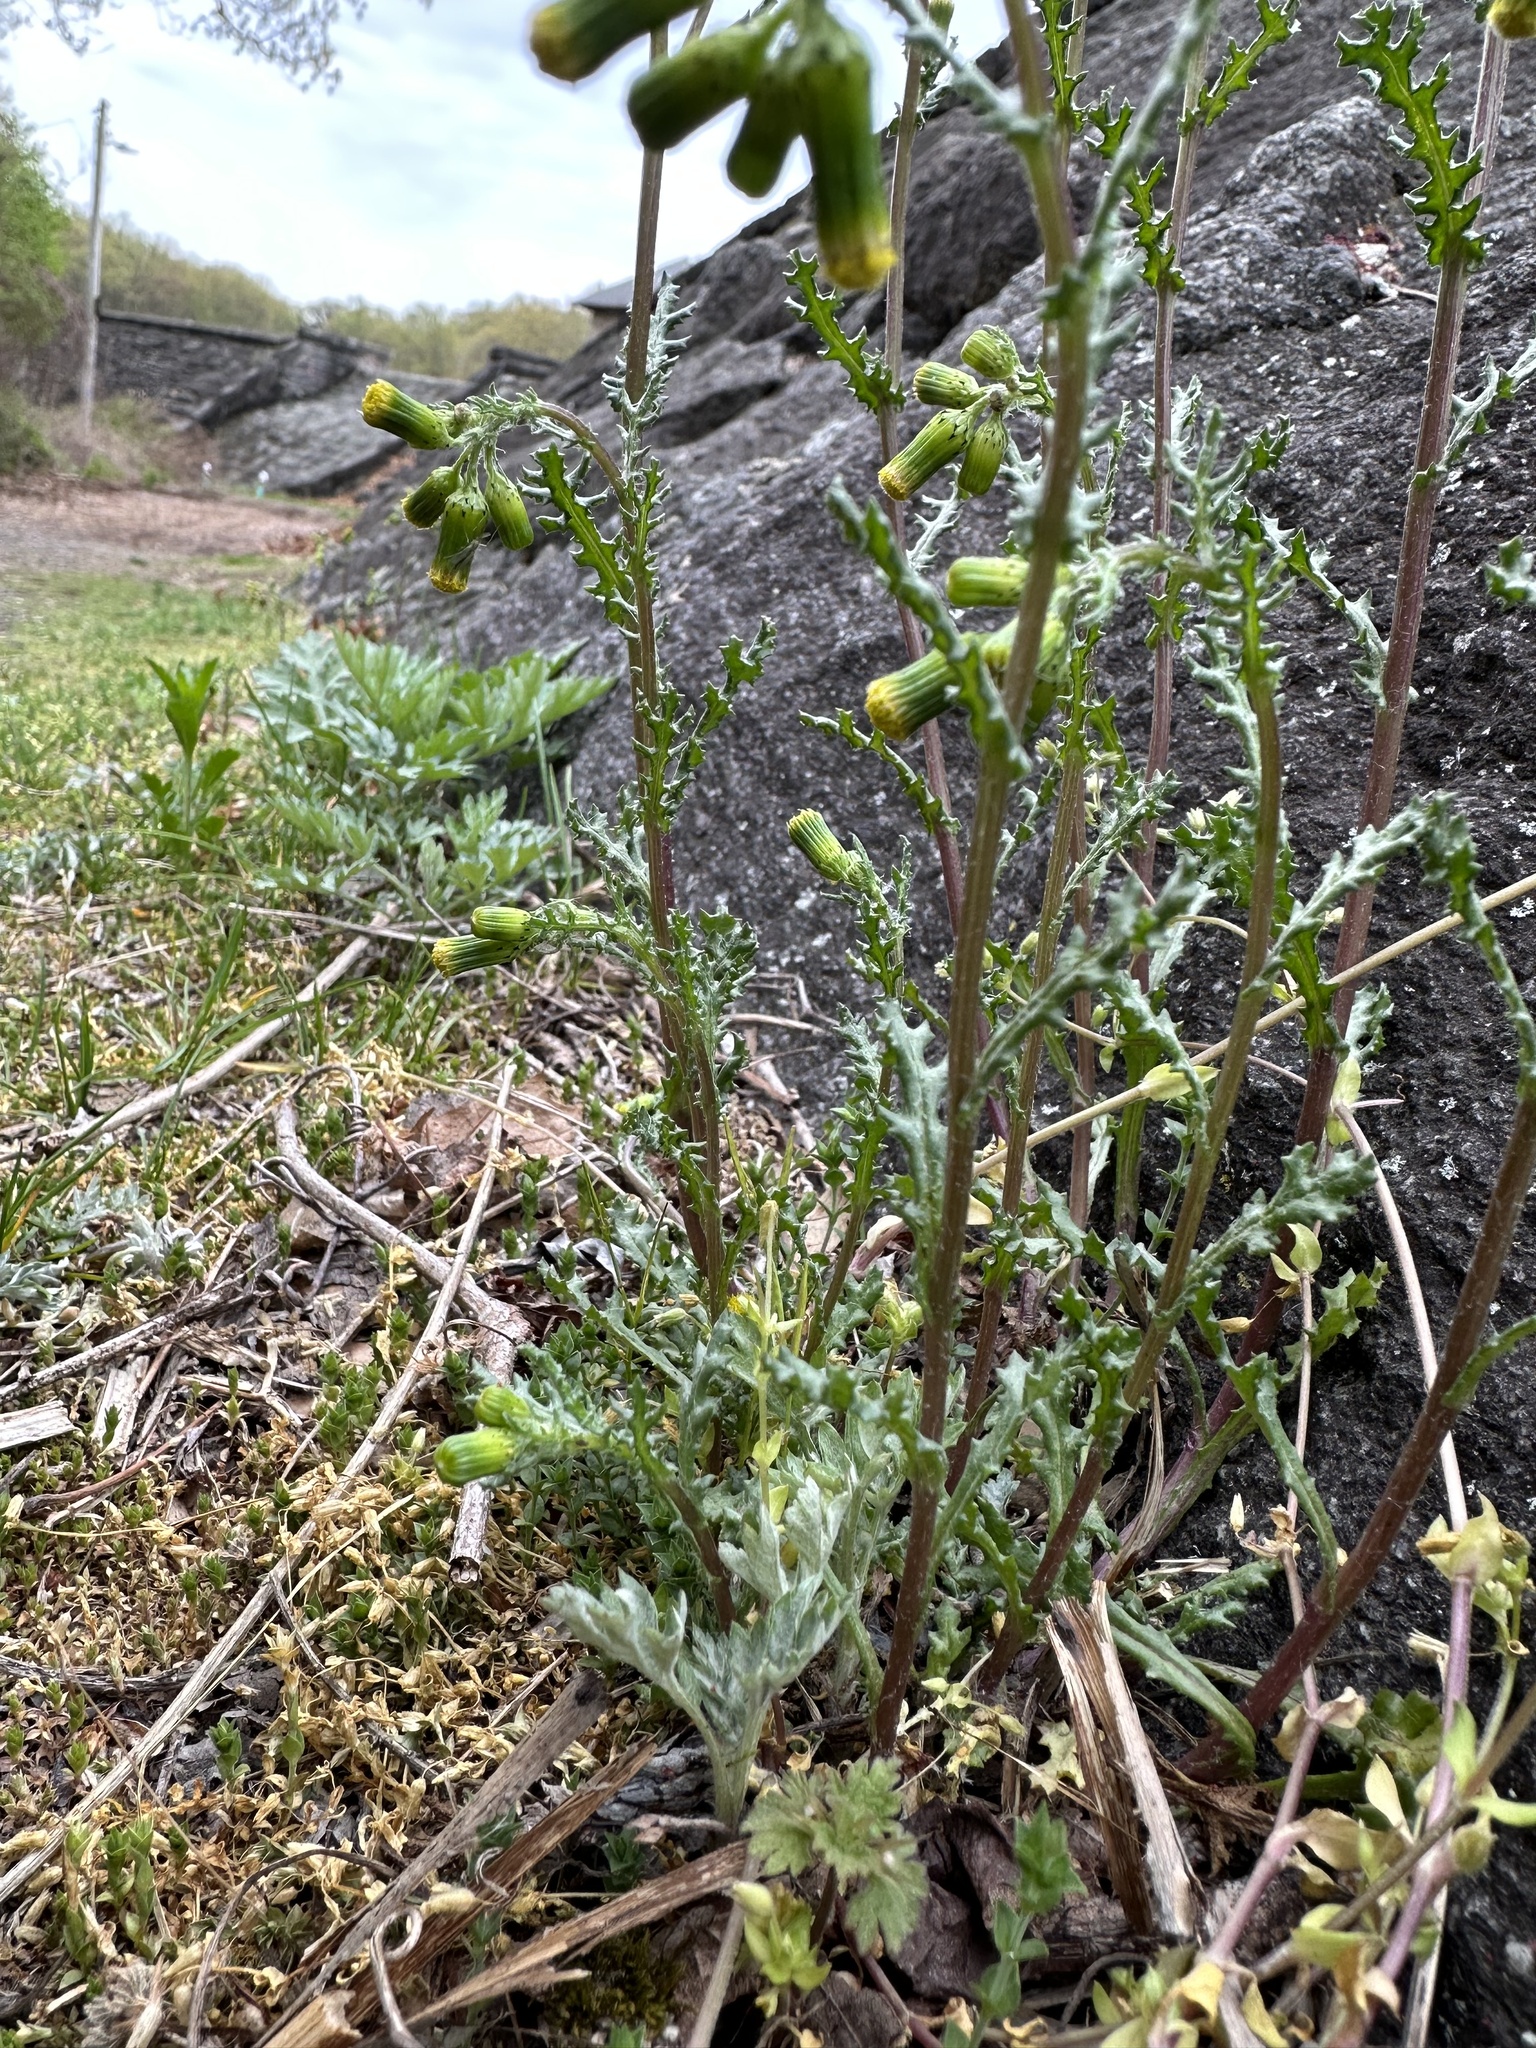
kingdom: Plantae
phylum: Tracheophyta
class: Magnoliopsida
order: Asterales
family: Asteraceae
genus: Senecio
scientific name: Senecio vulgaris
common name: Old-man-in-the-spring
